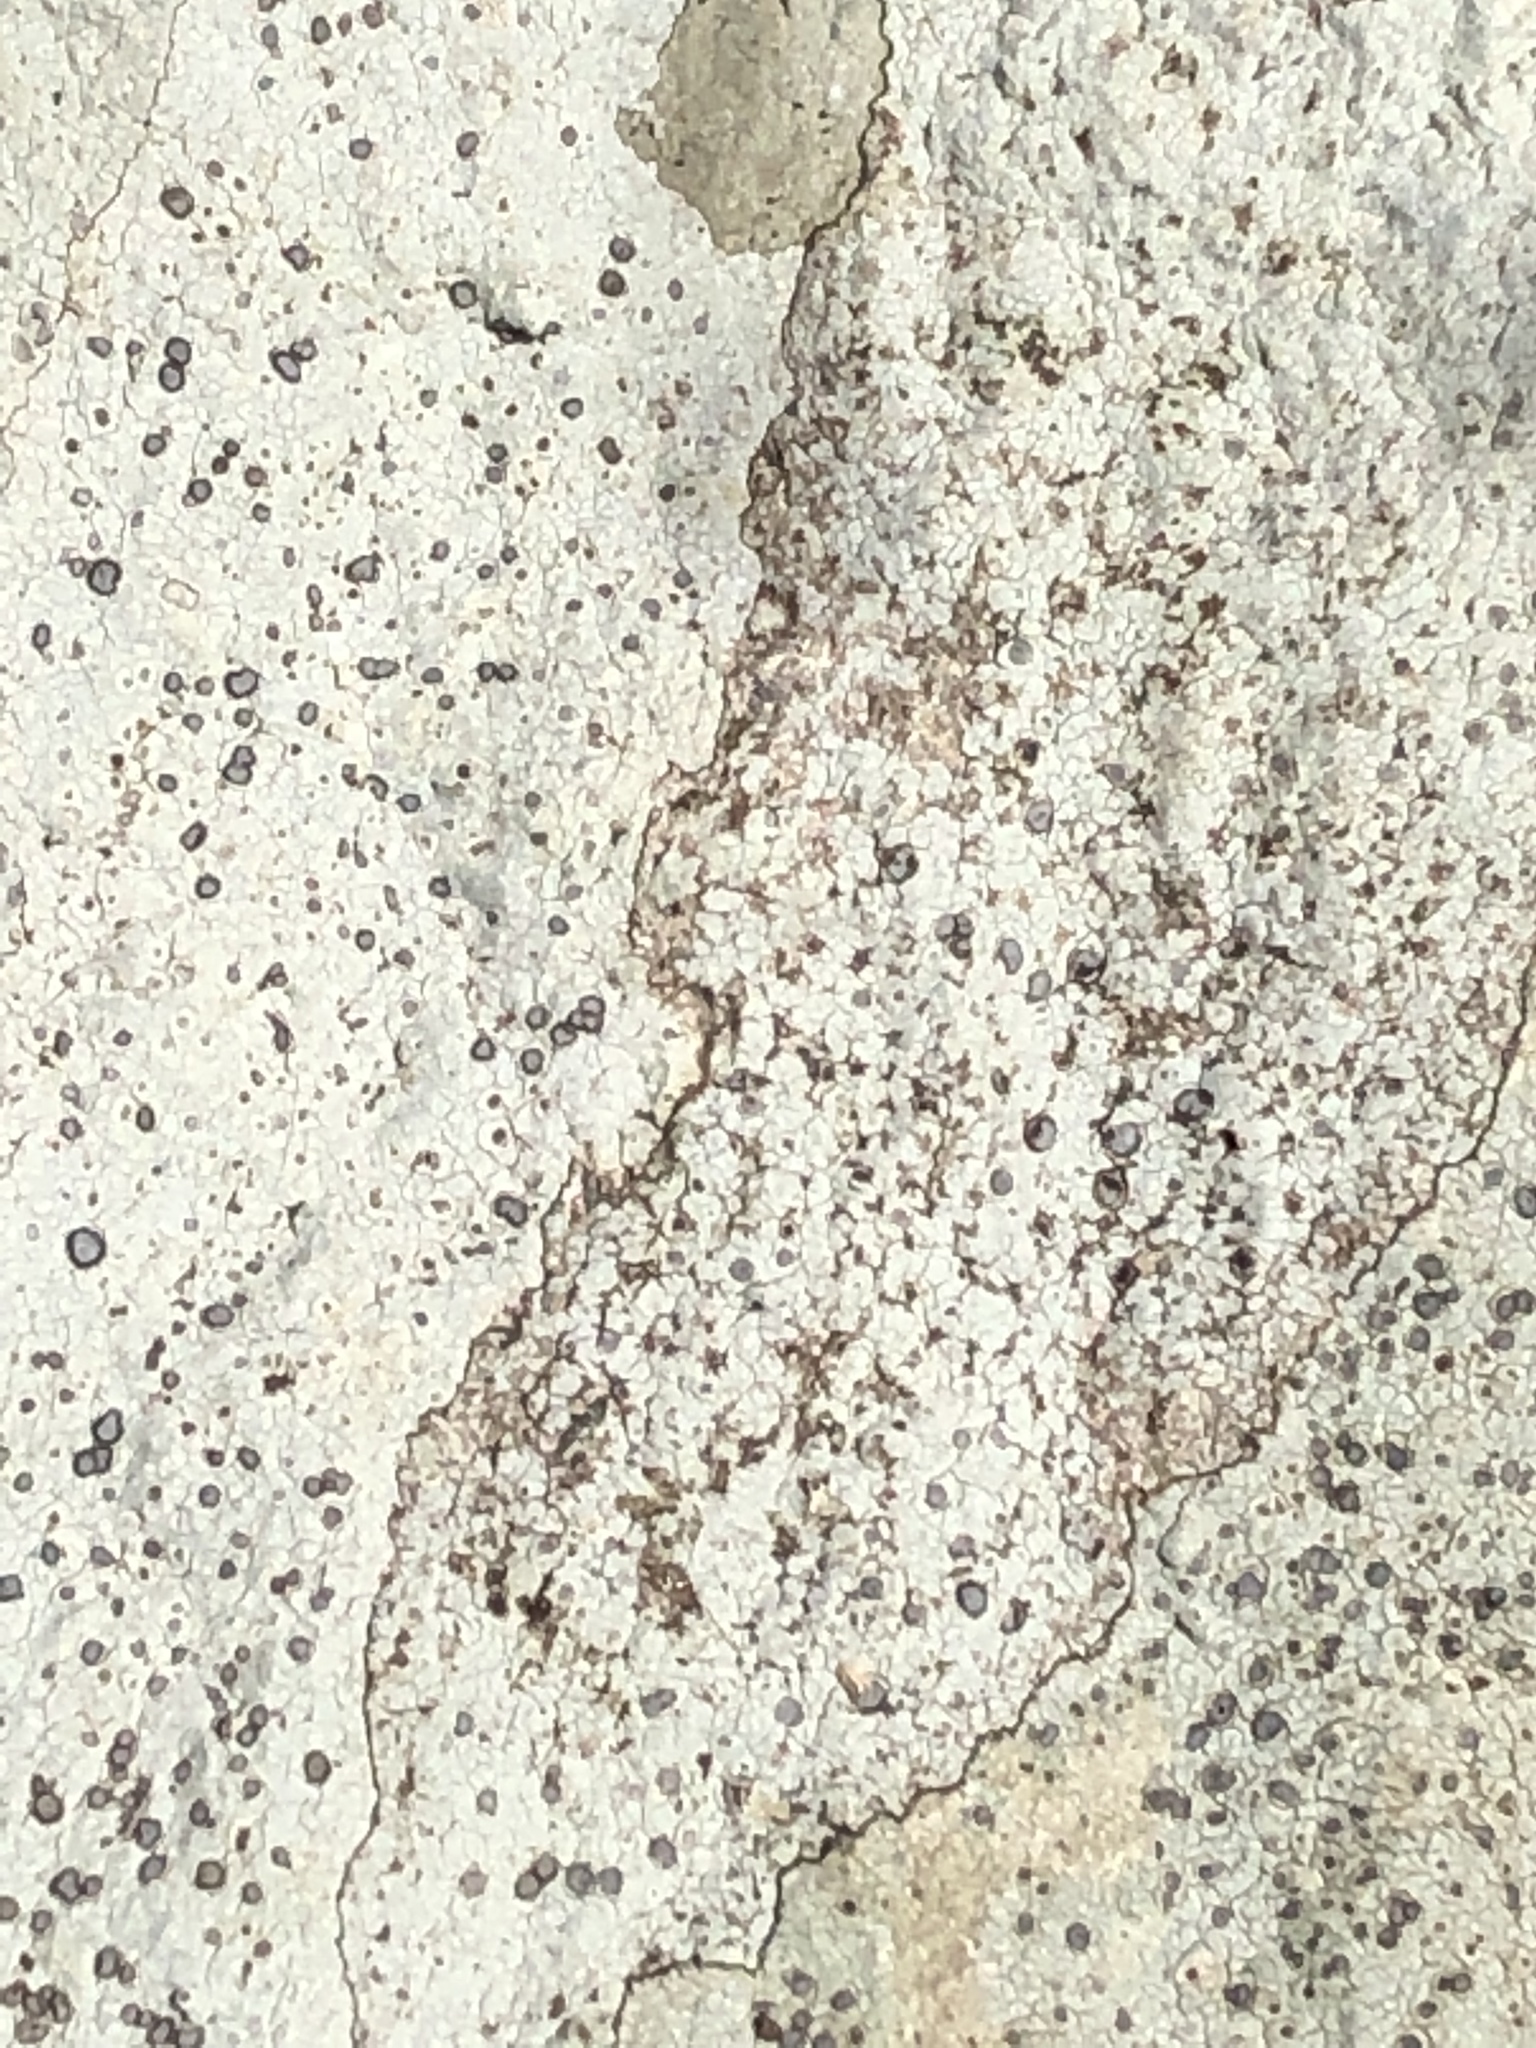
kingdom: Fungi
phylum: Ascomycota
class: Lecanoromycetes
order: Lecideales
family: Lecideaceae
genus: Porpidia
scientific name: Porpidia albocaerulescens
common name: Smokey-eyed boulder lichen
